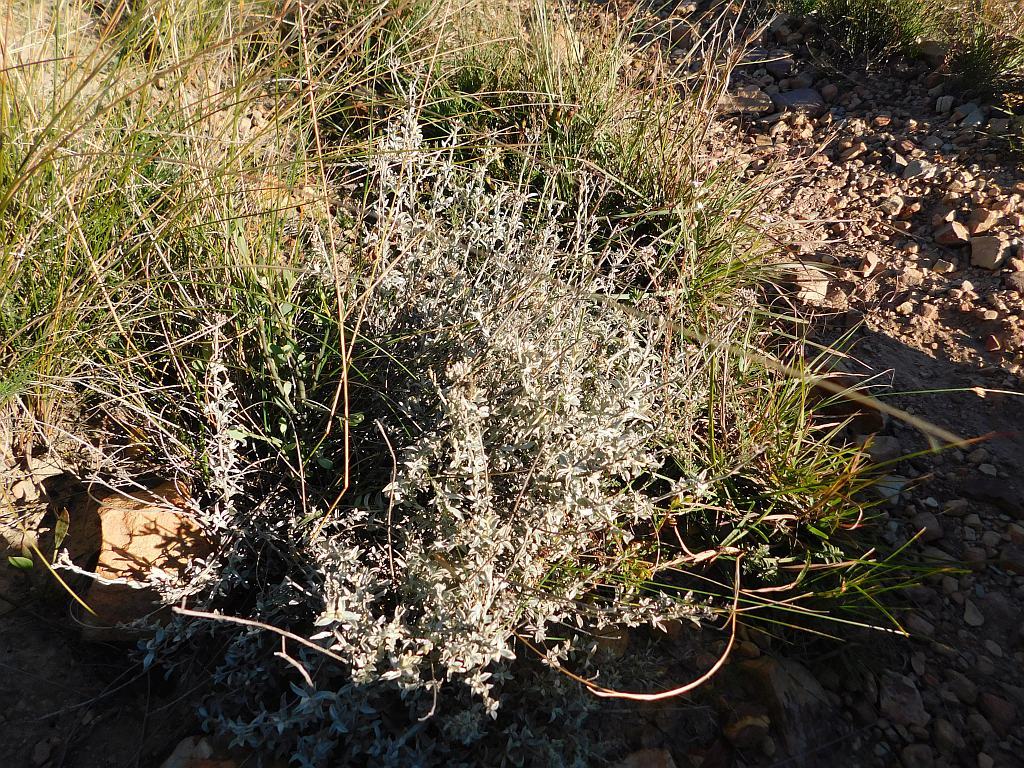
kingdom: Plantae
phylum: Tracheophyta
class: Magnoliopsida
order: Asterales
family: Asteraceae
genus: Helichrysum
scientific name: Helichrysum zeyheri
